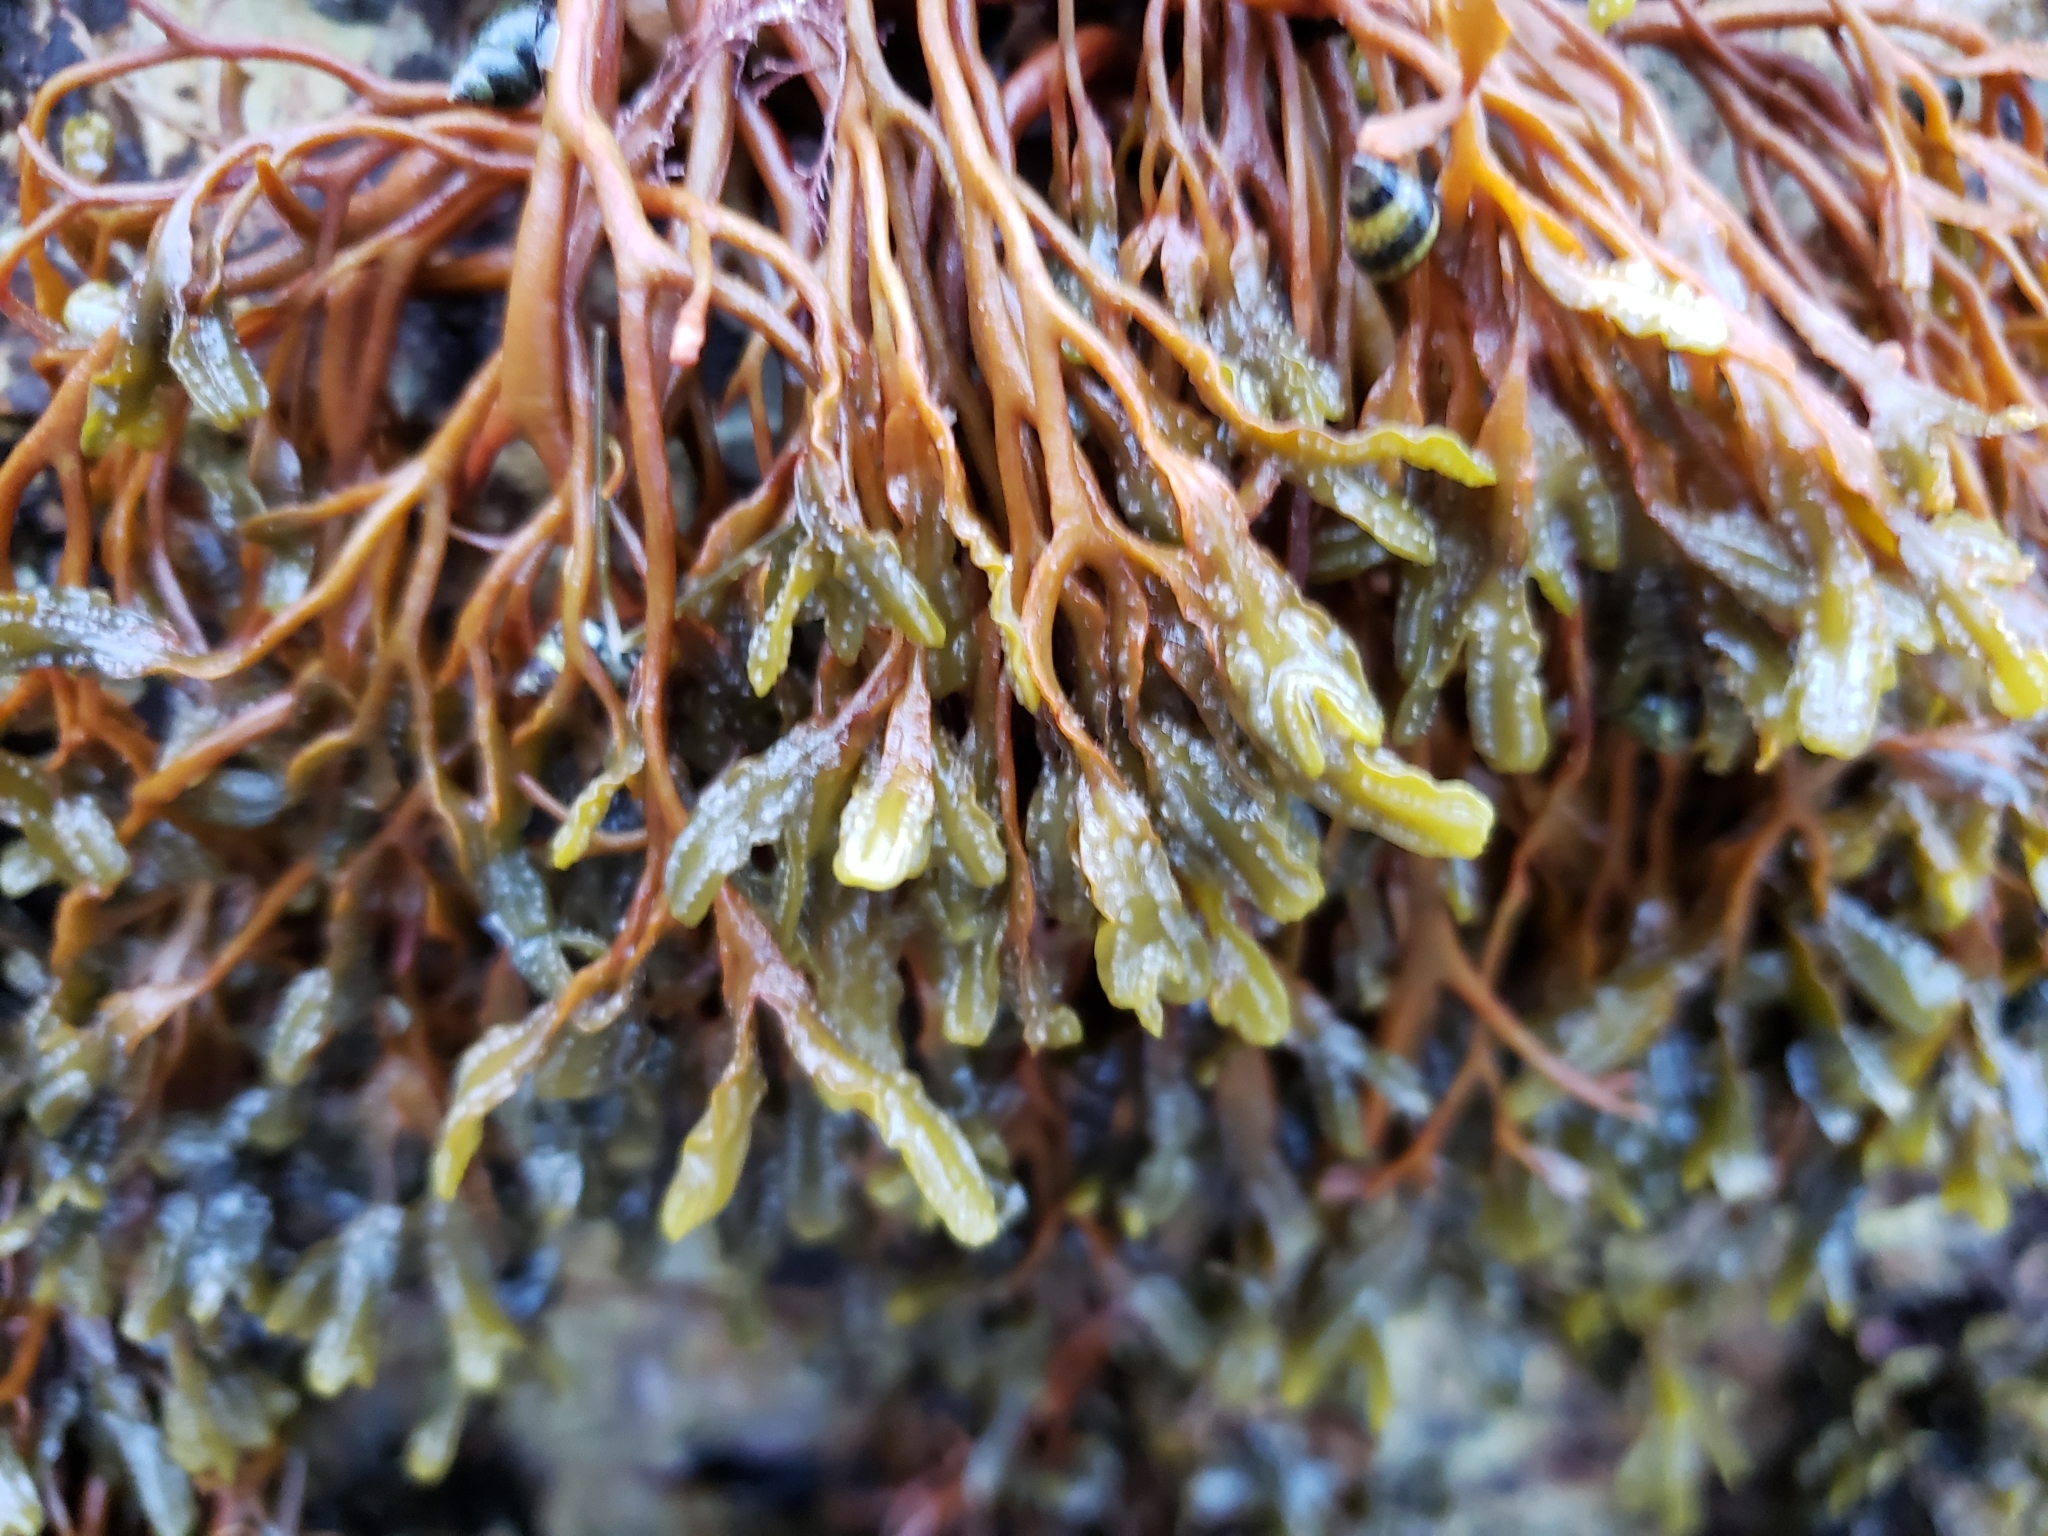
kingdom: Chromista
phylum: Ochrophyta
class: Phaeophyceae
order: Fucales
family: Fucaceae
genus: Pelvetiopsis
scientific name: Pelvetiopsis
